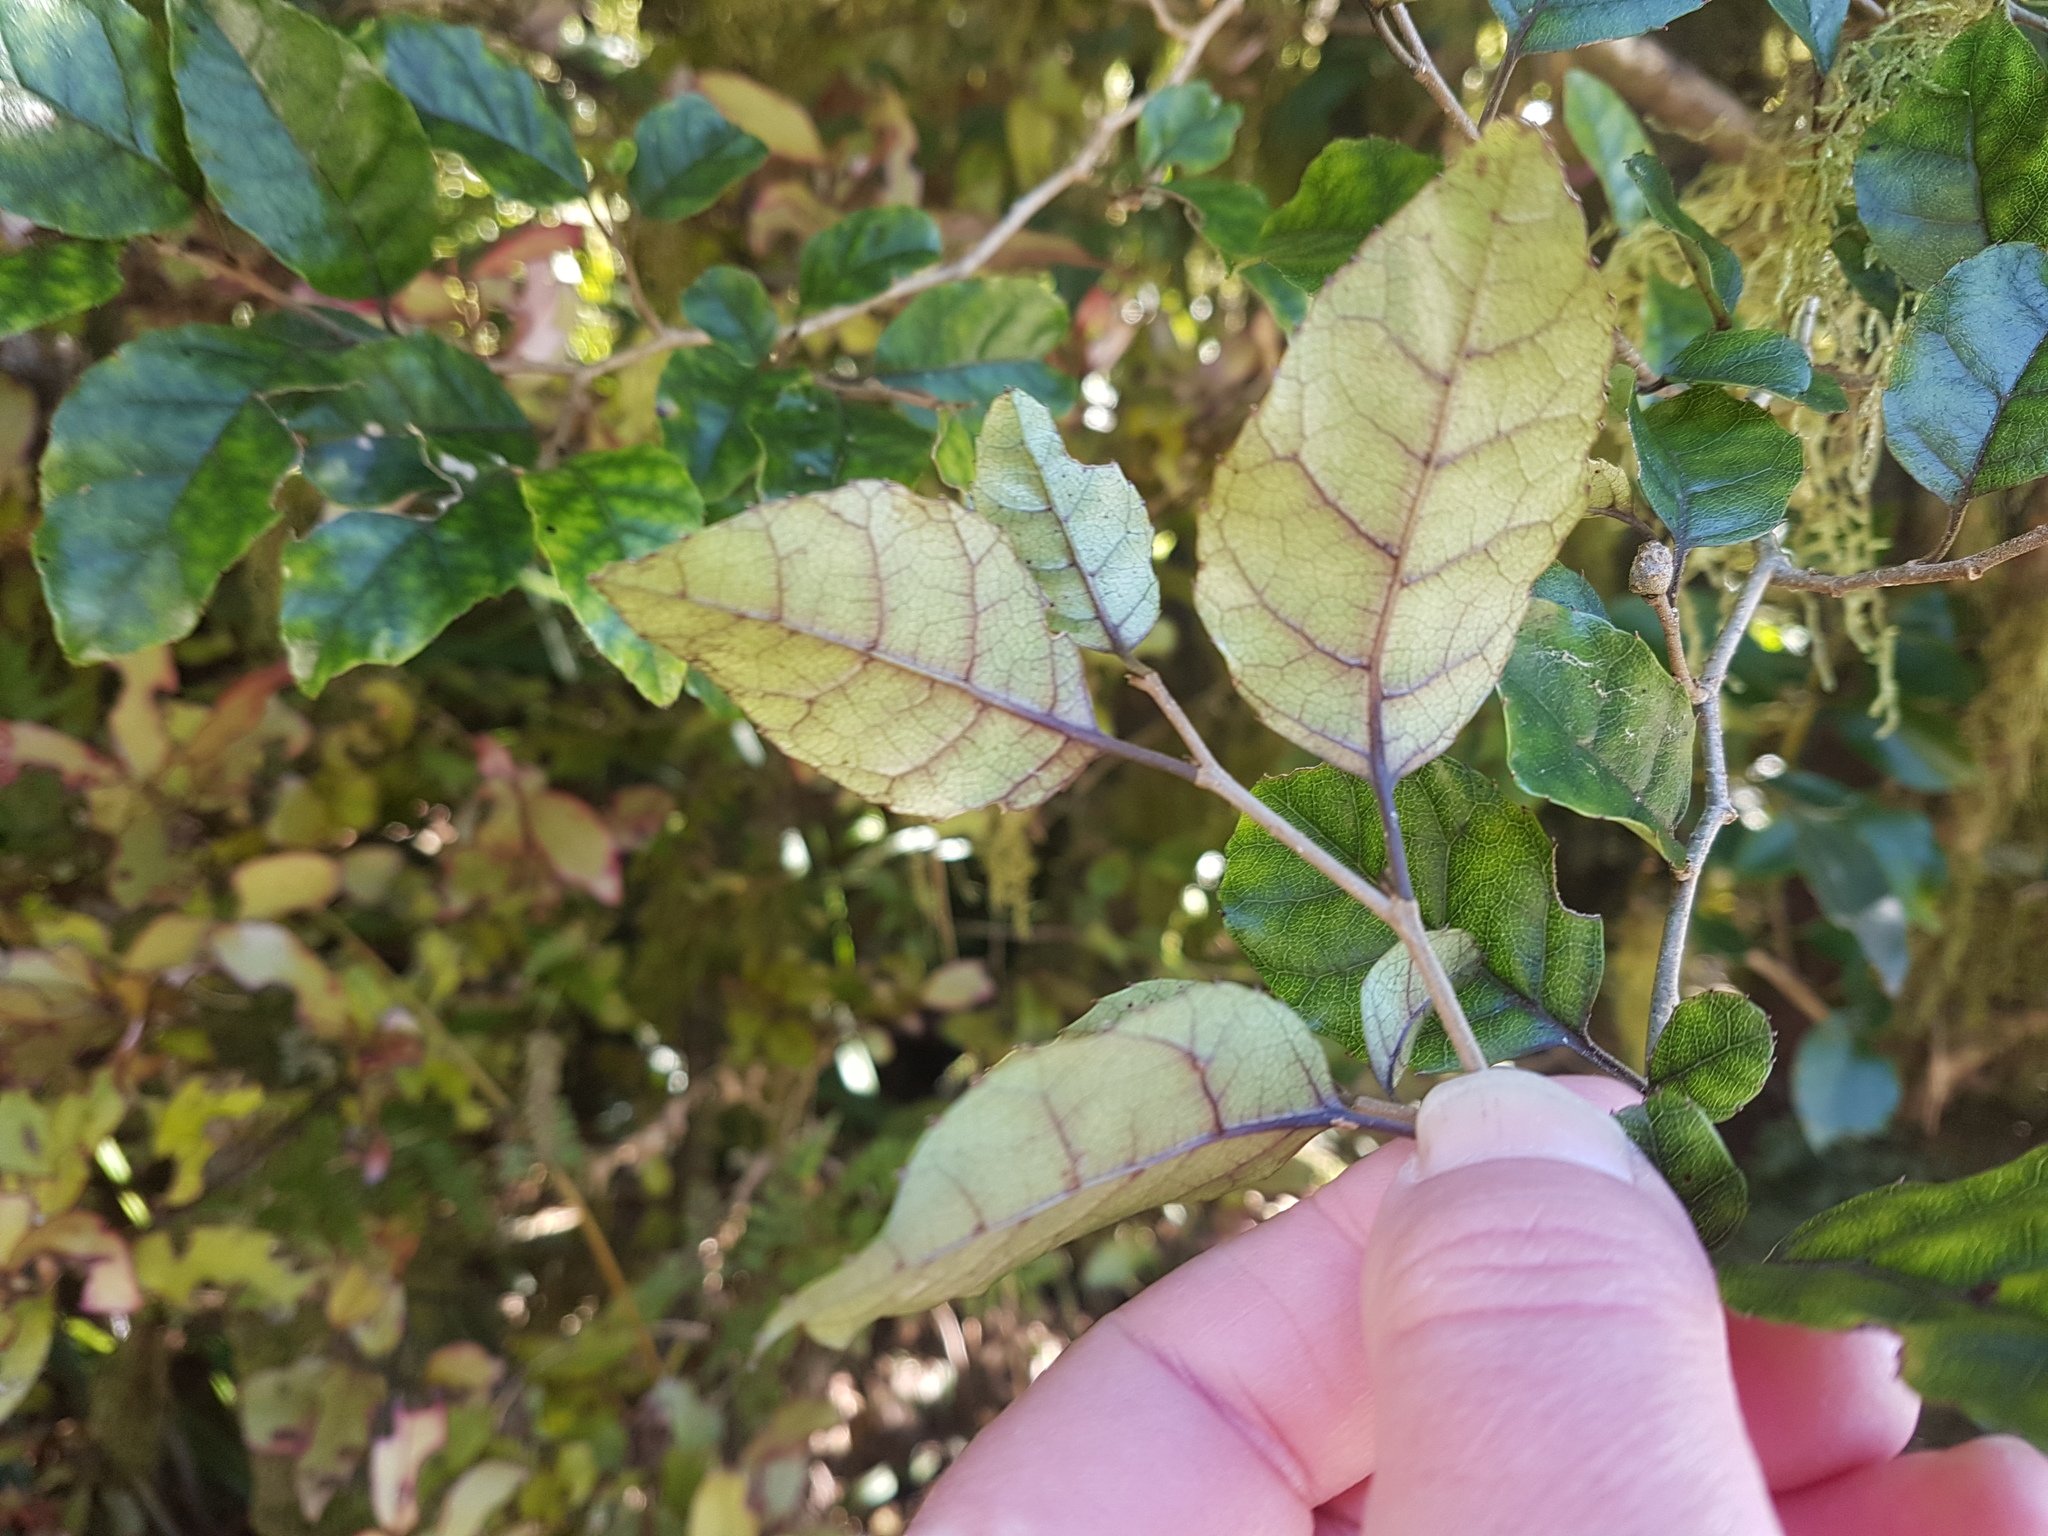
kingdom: Plantae
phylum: Tracheophyta
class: Magnoliopsida
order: Asterales
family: Rousseaceae
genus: Carpodetus
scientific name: Carpodetus serratus
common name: White mapau
